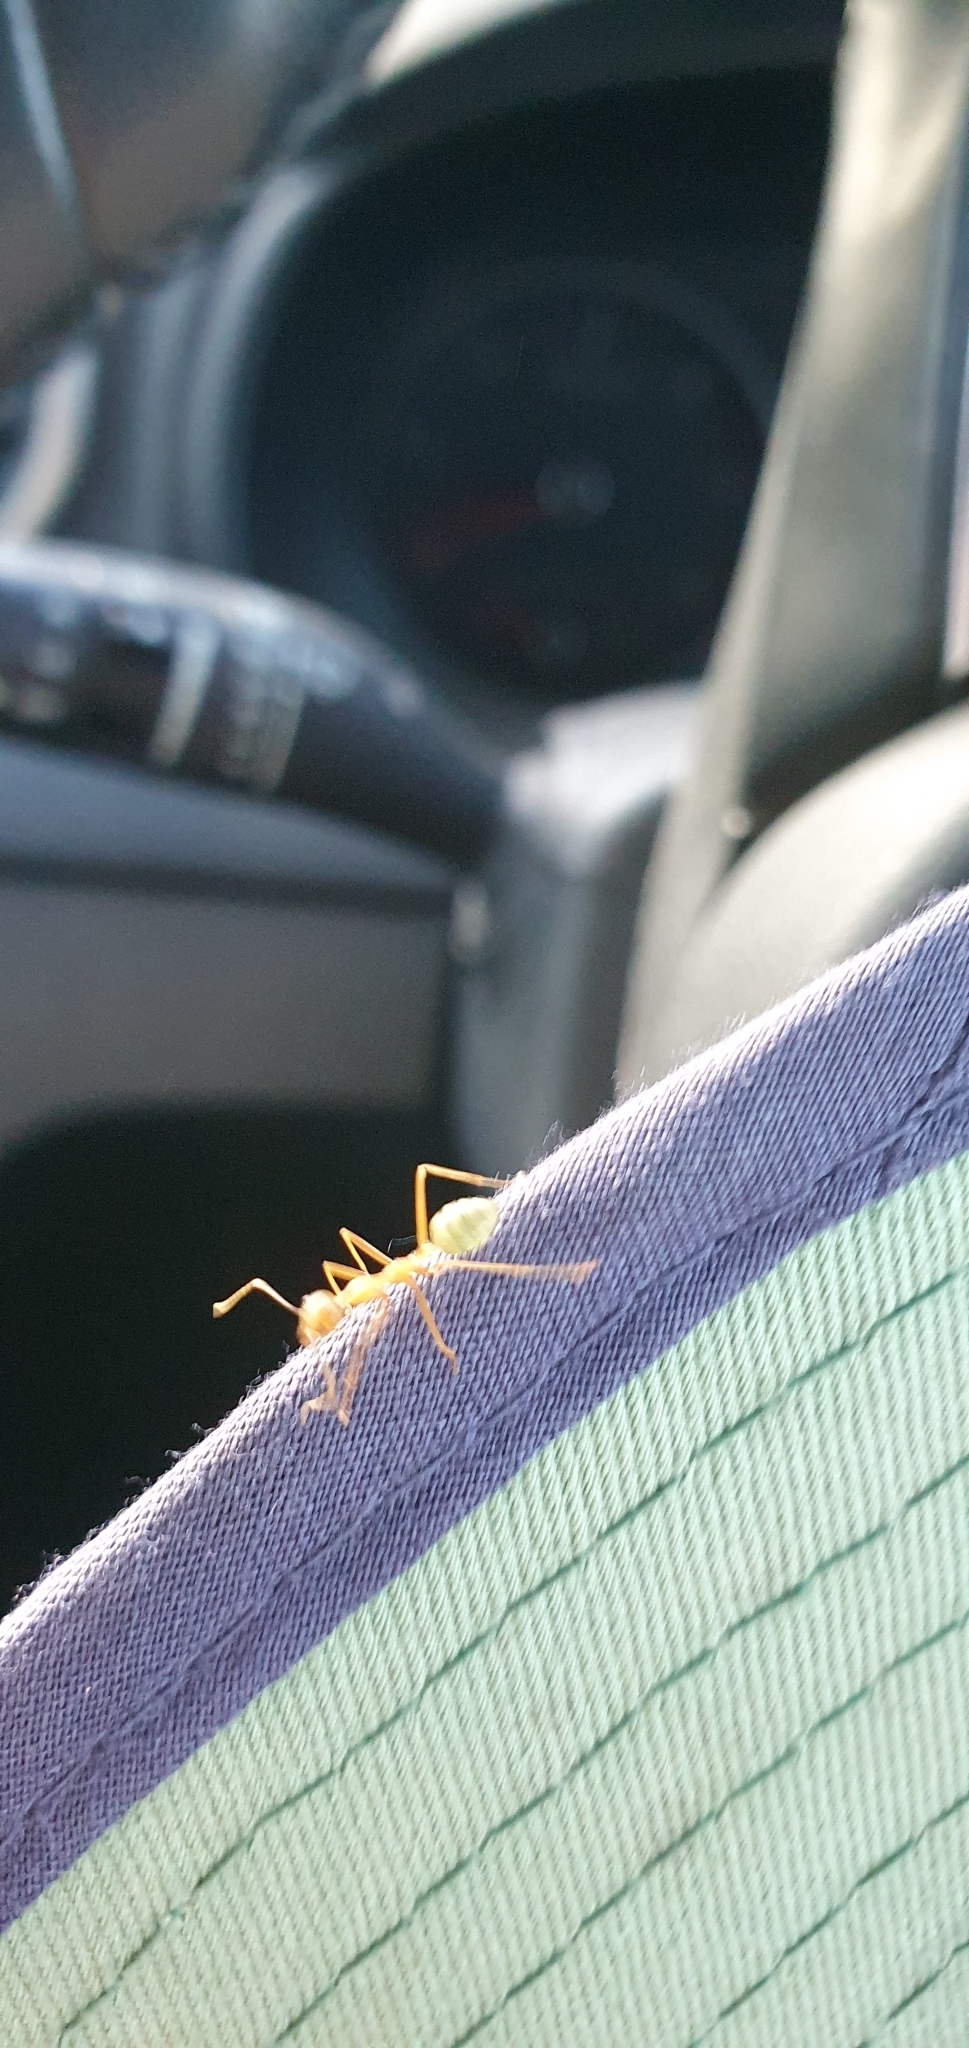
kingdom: Animalia
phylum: Arthropoda
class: Insecta
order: Hymenoptera
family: Formicidae
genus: Oecophylla
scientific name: Oecophylla smaragdina
